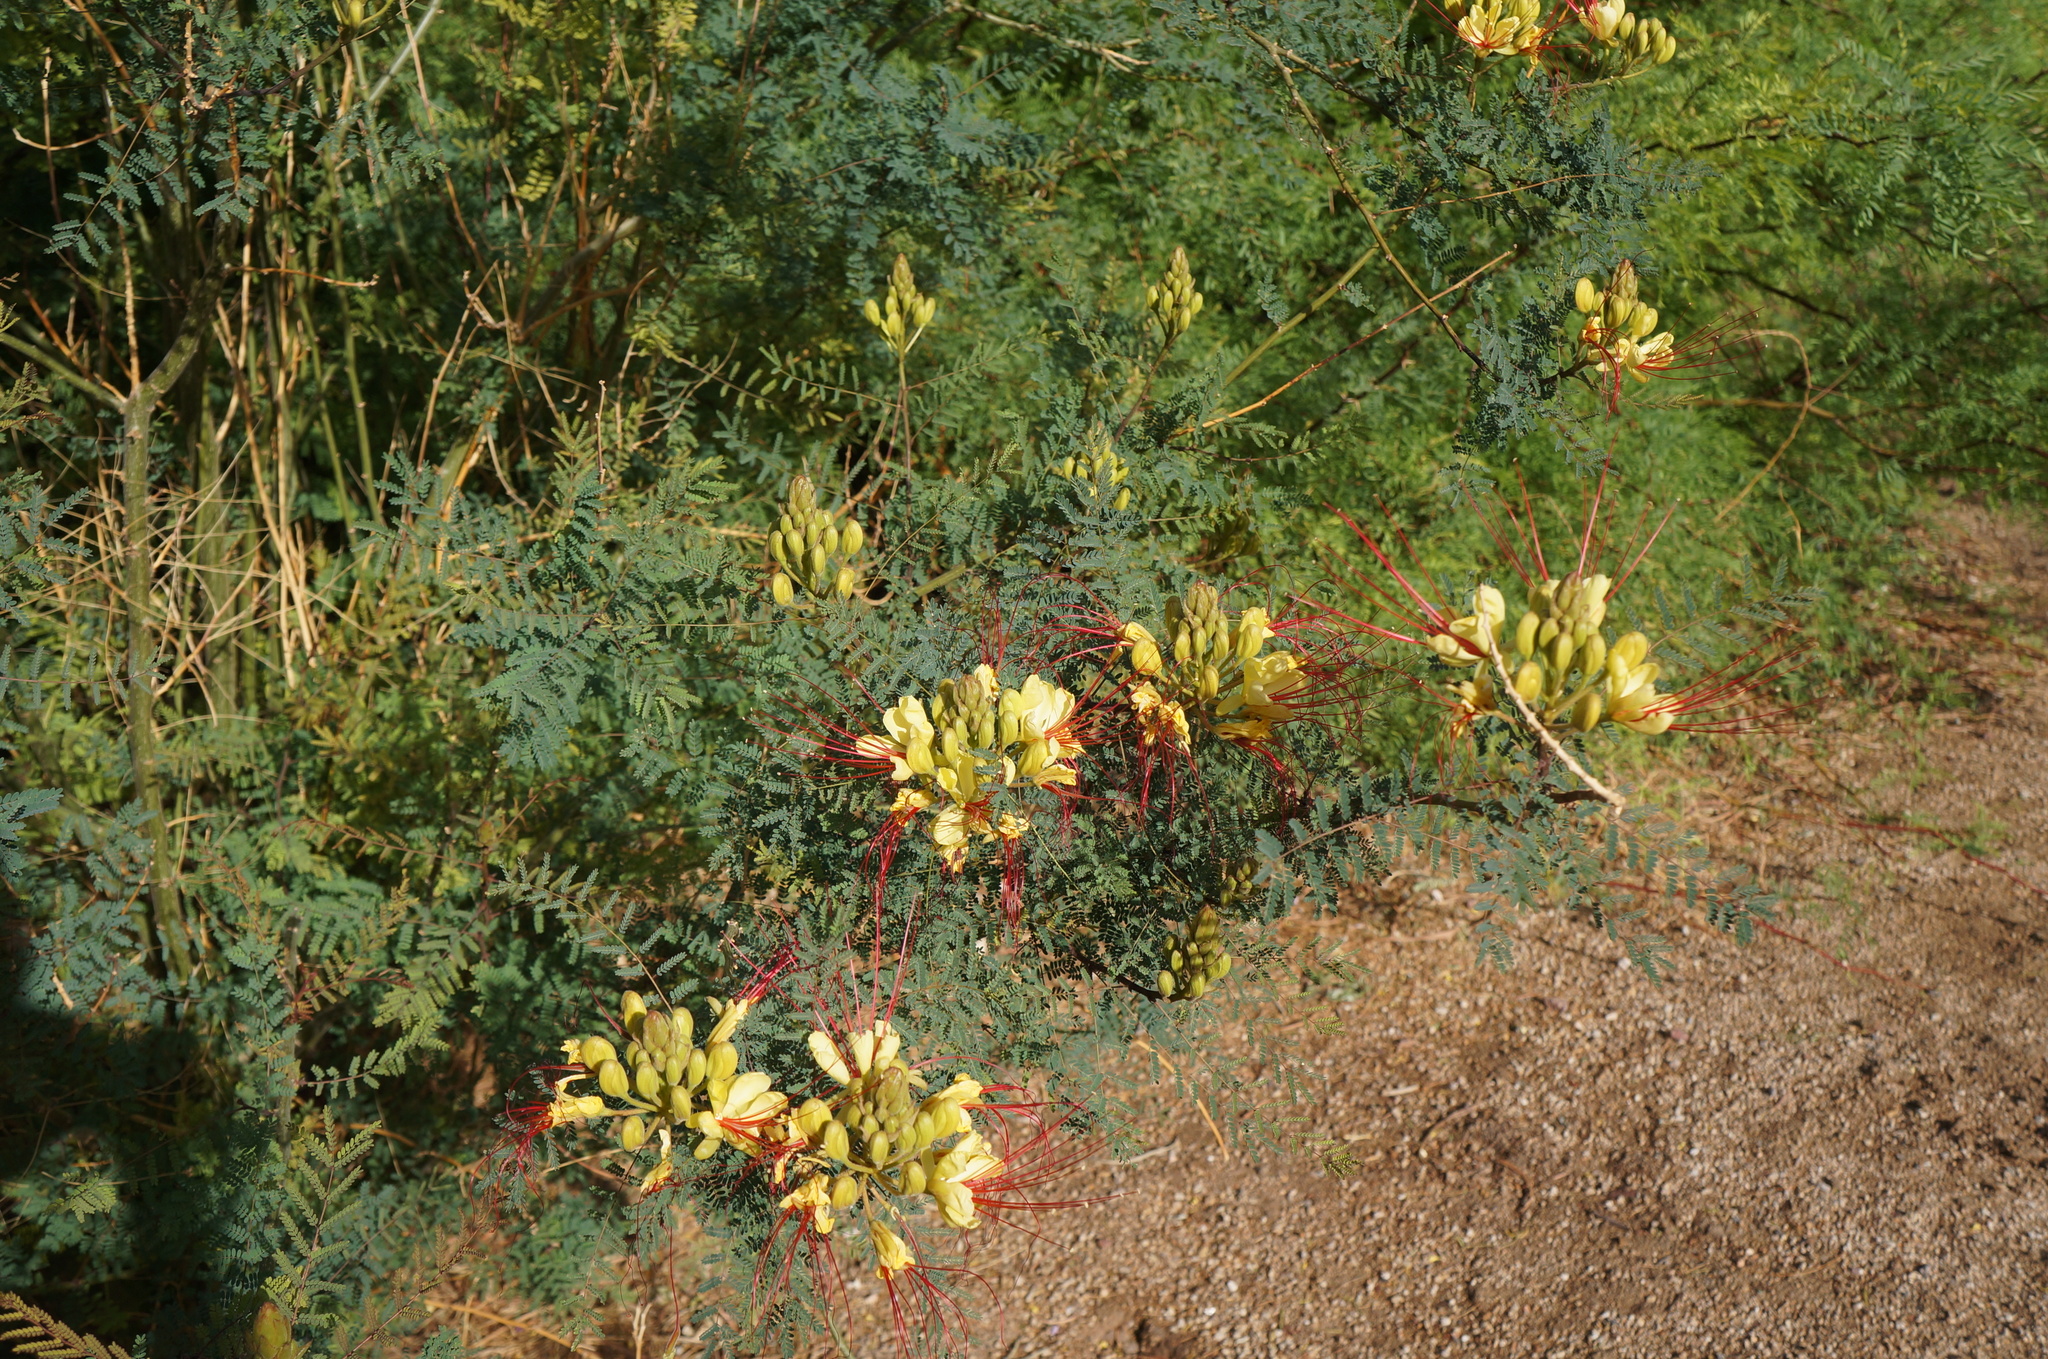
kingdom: Plantae
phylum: Tracheophyta
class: Magnoliopsida
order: Fabales
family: Fabaceae
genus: Erythrostemon
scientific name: Erythrostemon gilliesii
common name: Bird-of-paradise shrub
